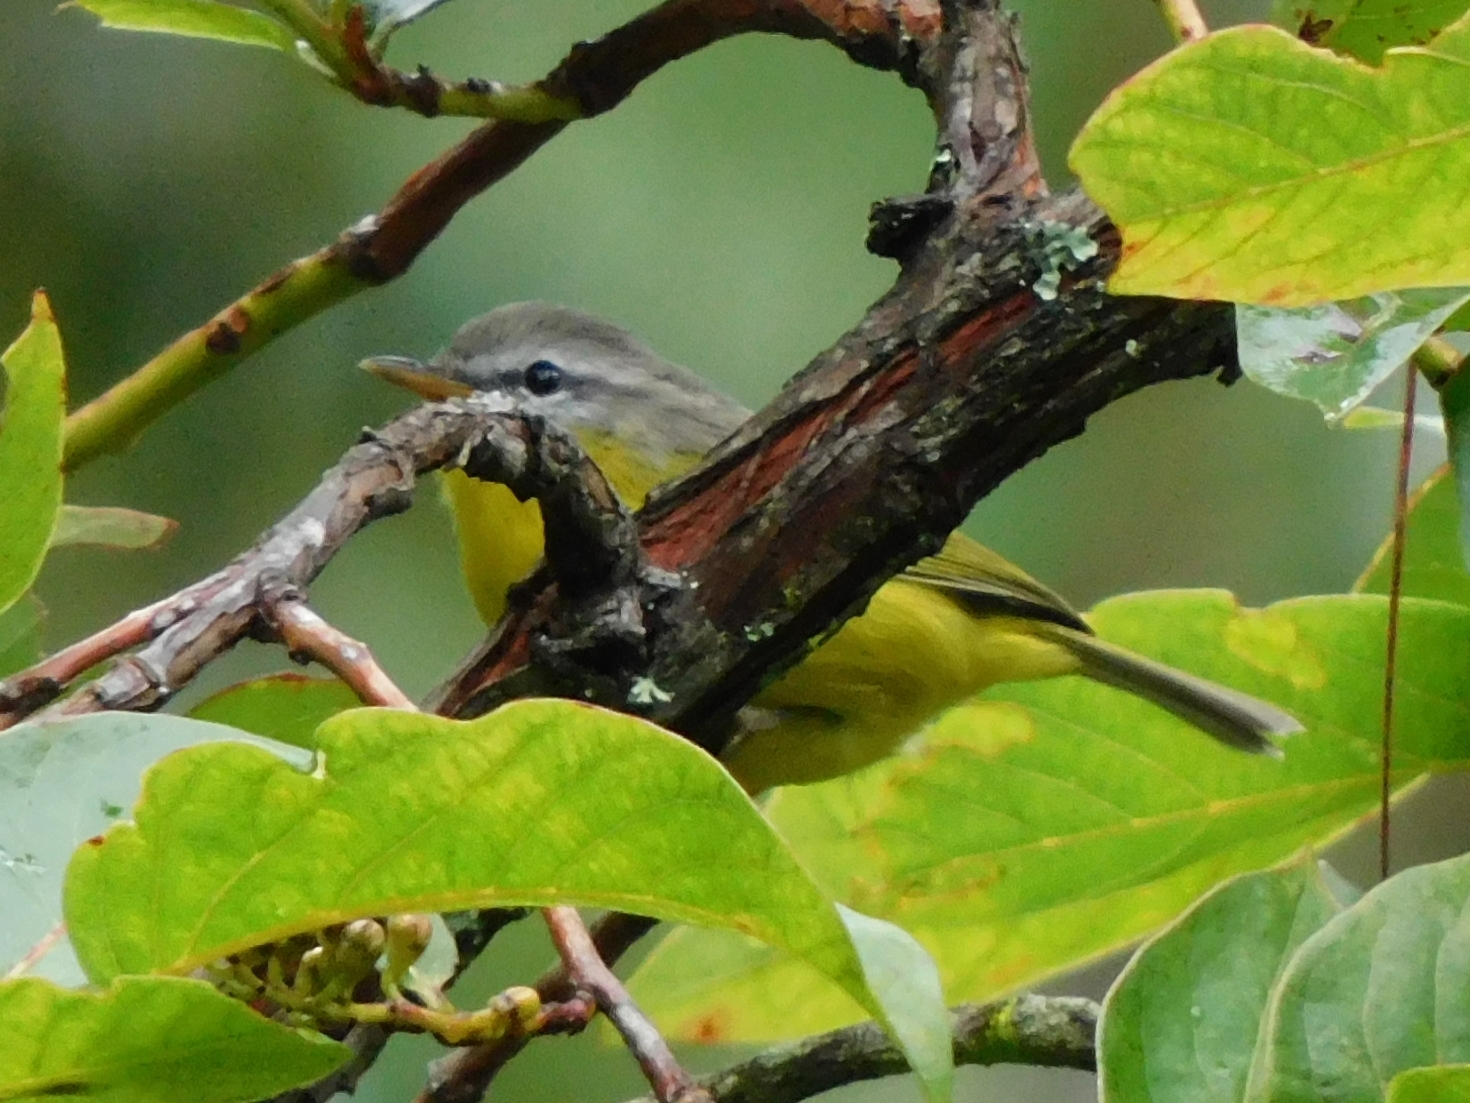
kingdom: Animalia
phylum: Chordata
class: Aves
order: Passeriformes
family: Phylloscopidae
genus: Phylloscopus
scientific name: Phylloscopus xanthoschistos
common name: Grey-hooded warbler
